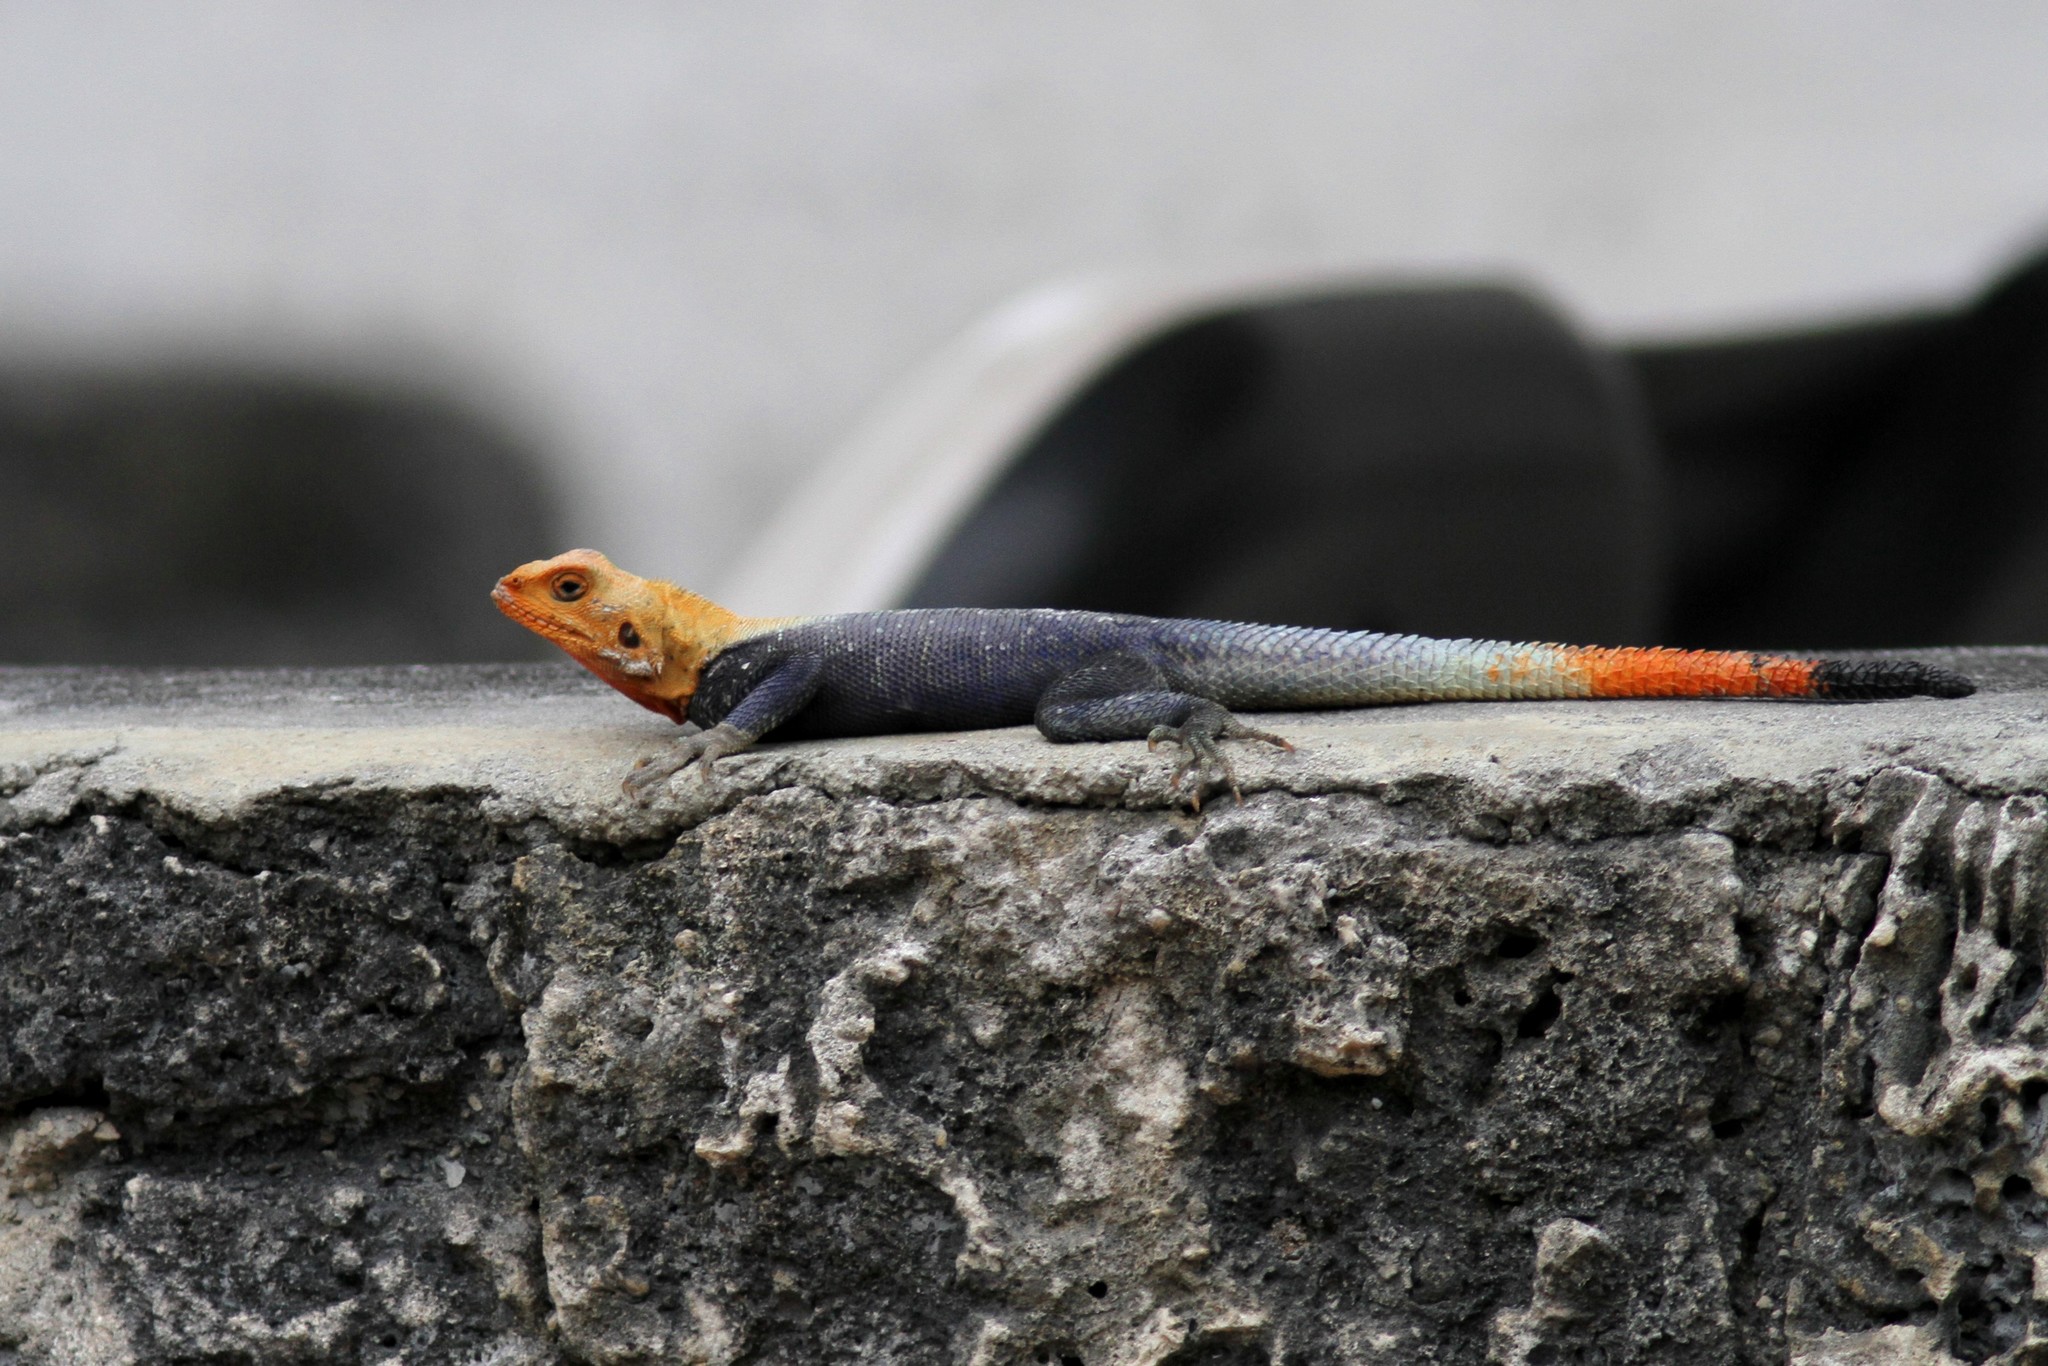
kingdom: Animalia
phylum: Chordata
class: Squamata
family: Agamidae
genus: Agama
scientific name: Agama picticauda
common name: Red-headed agama
